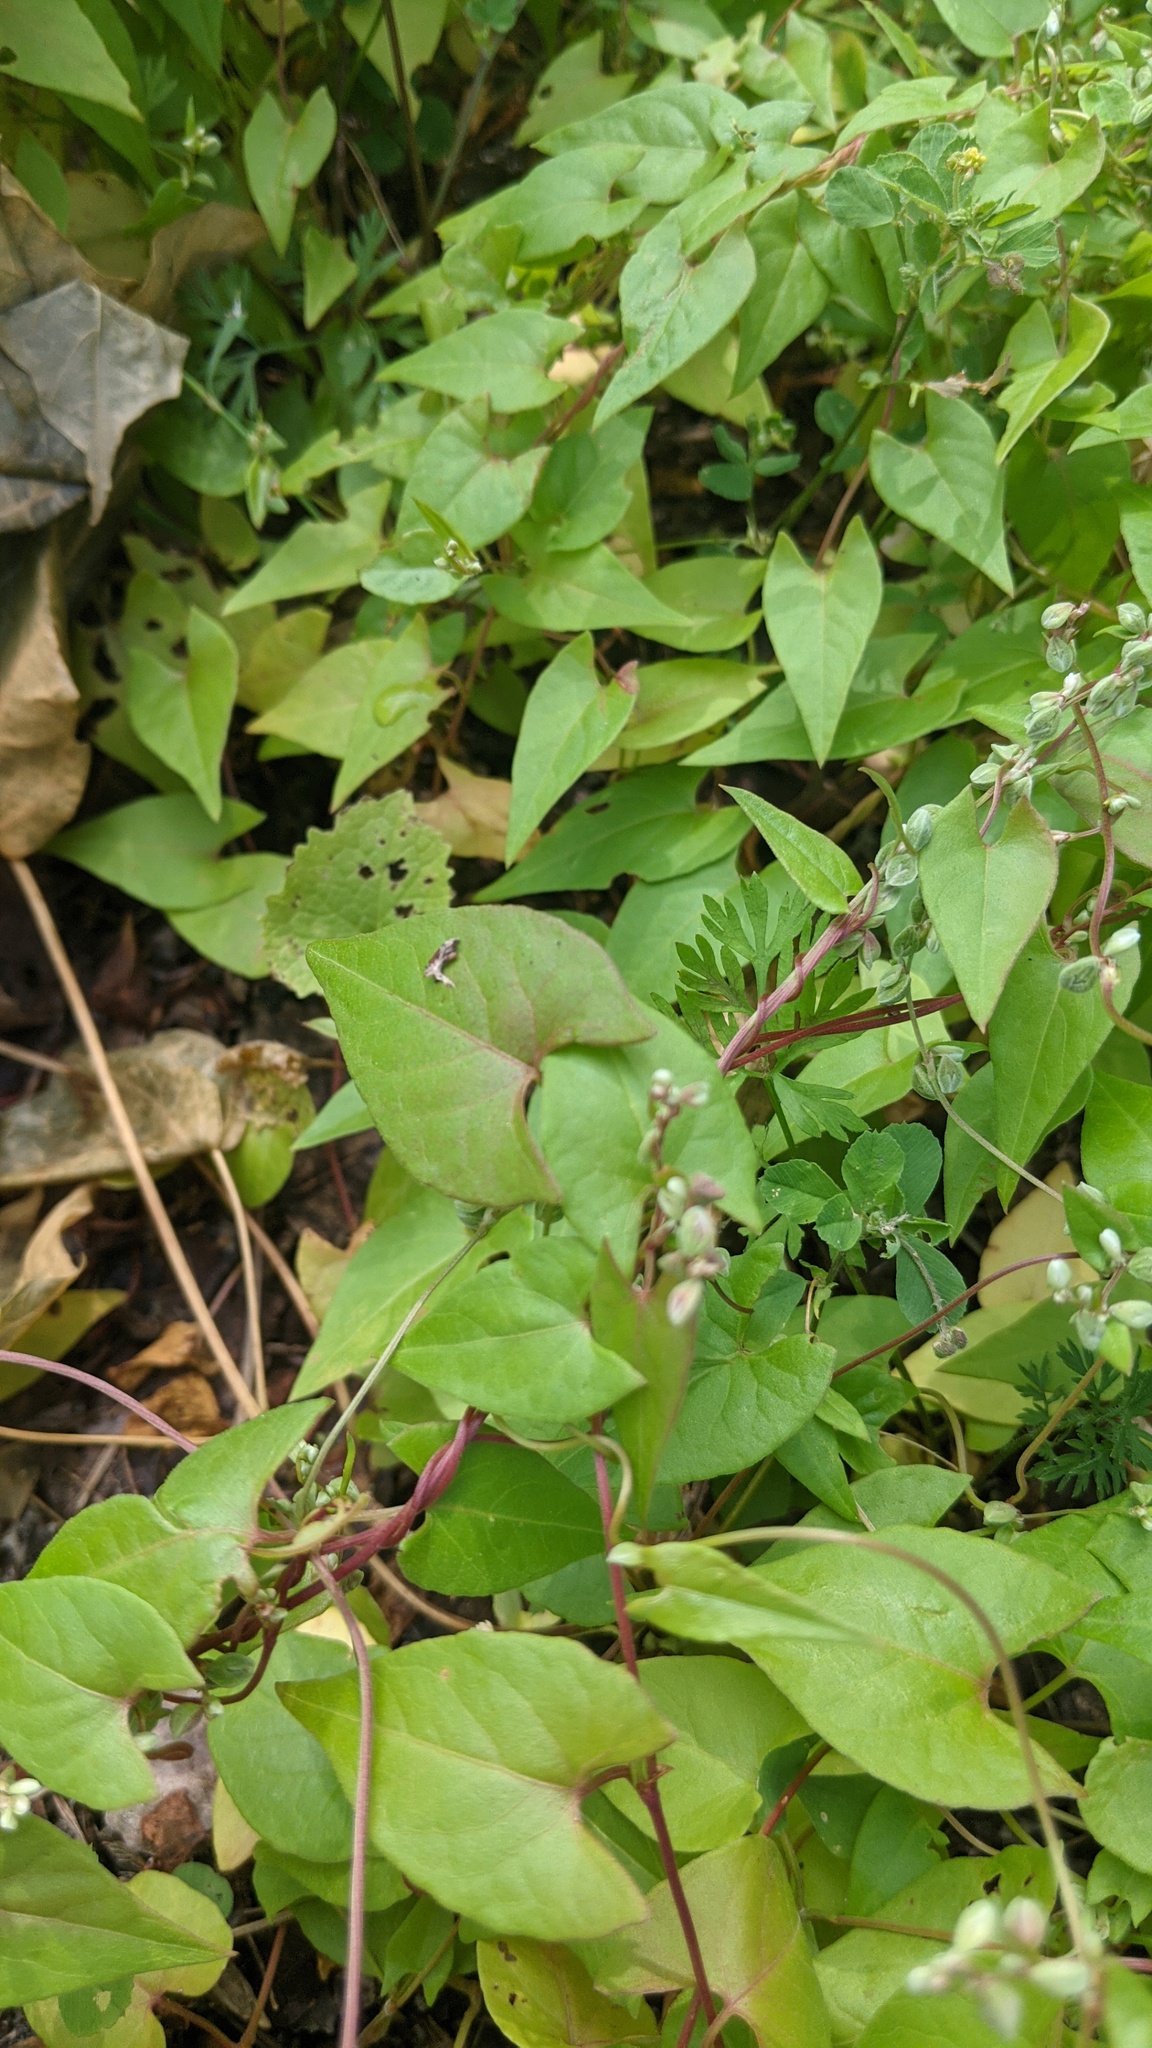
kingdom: Plantae
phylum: Tracheophyta
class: Magnoliopsida
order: Caryophyllales
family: Polygonaceae
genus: Fallopia
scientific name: Fallopia convolvulus
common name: Black bindweed
